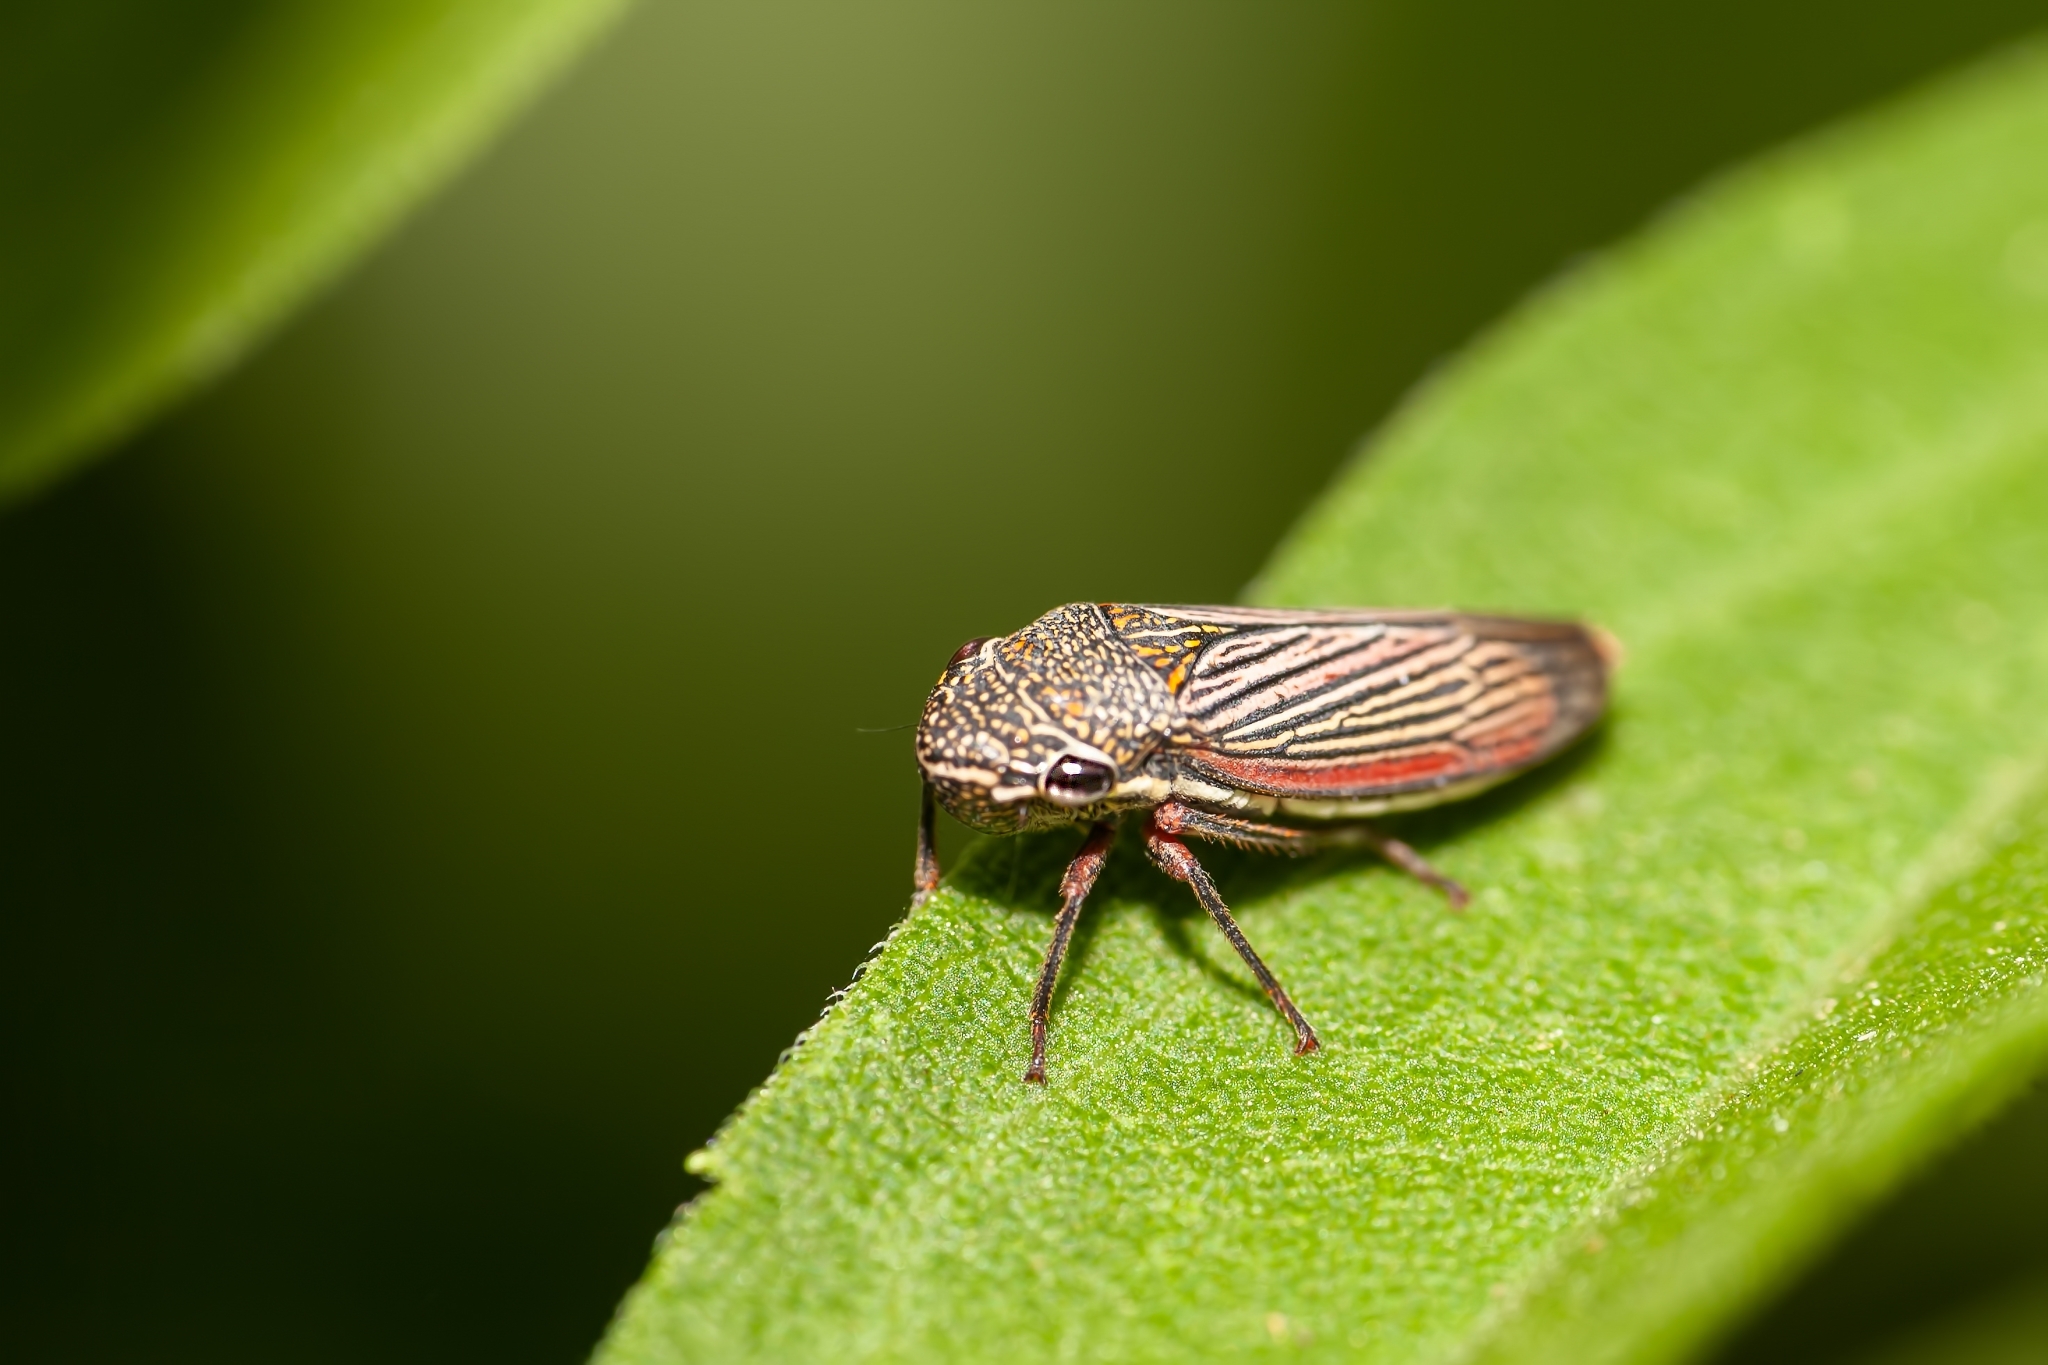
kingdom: Animalia
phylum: Arthropoda
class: Insecta
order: Hemiptera
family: Cicadellidae
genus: Cuerna
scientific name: Cuerna costalis
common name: Lateral-lined sharpshooter
